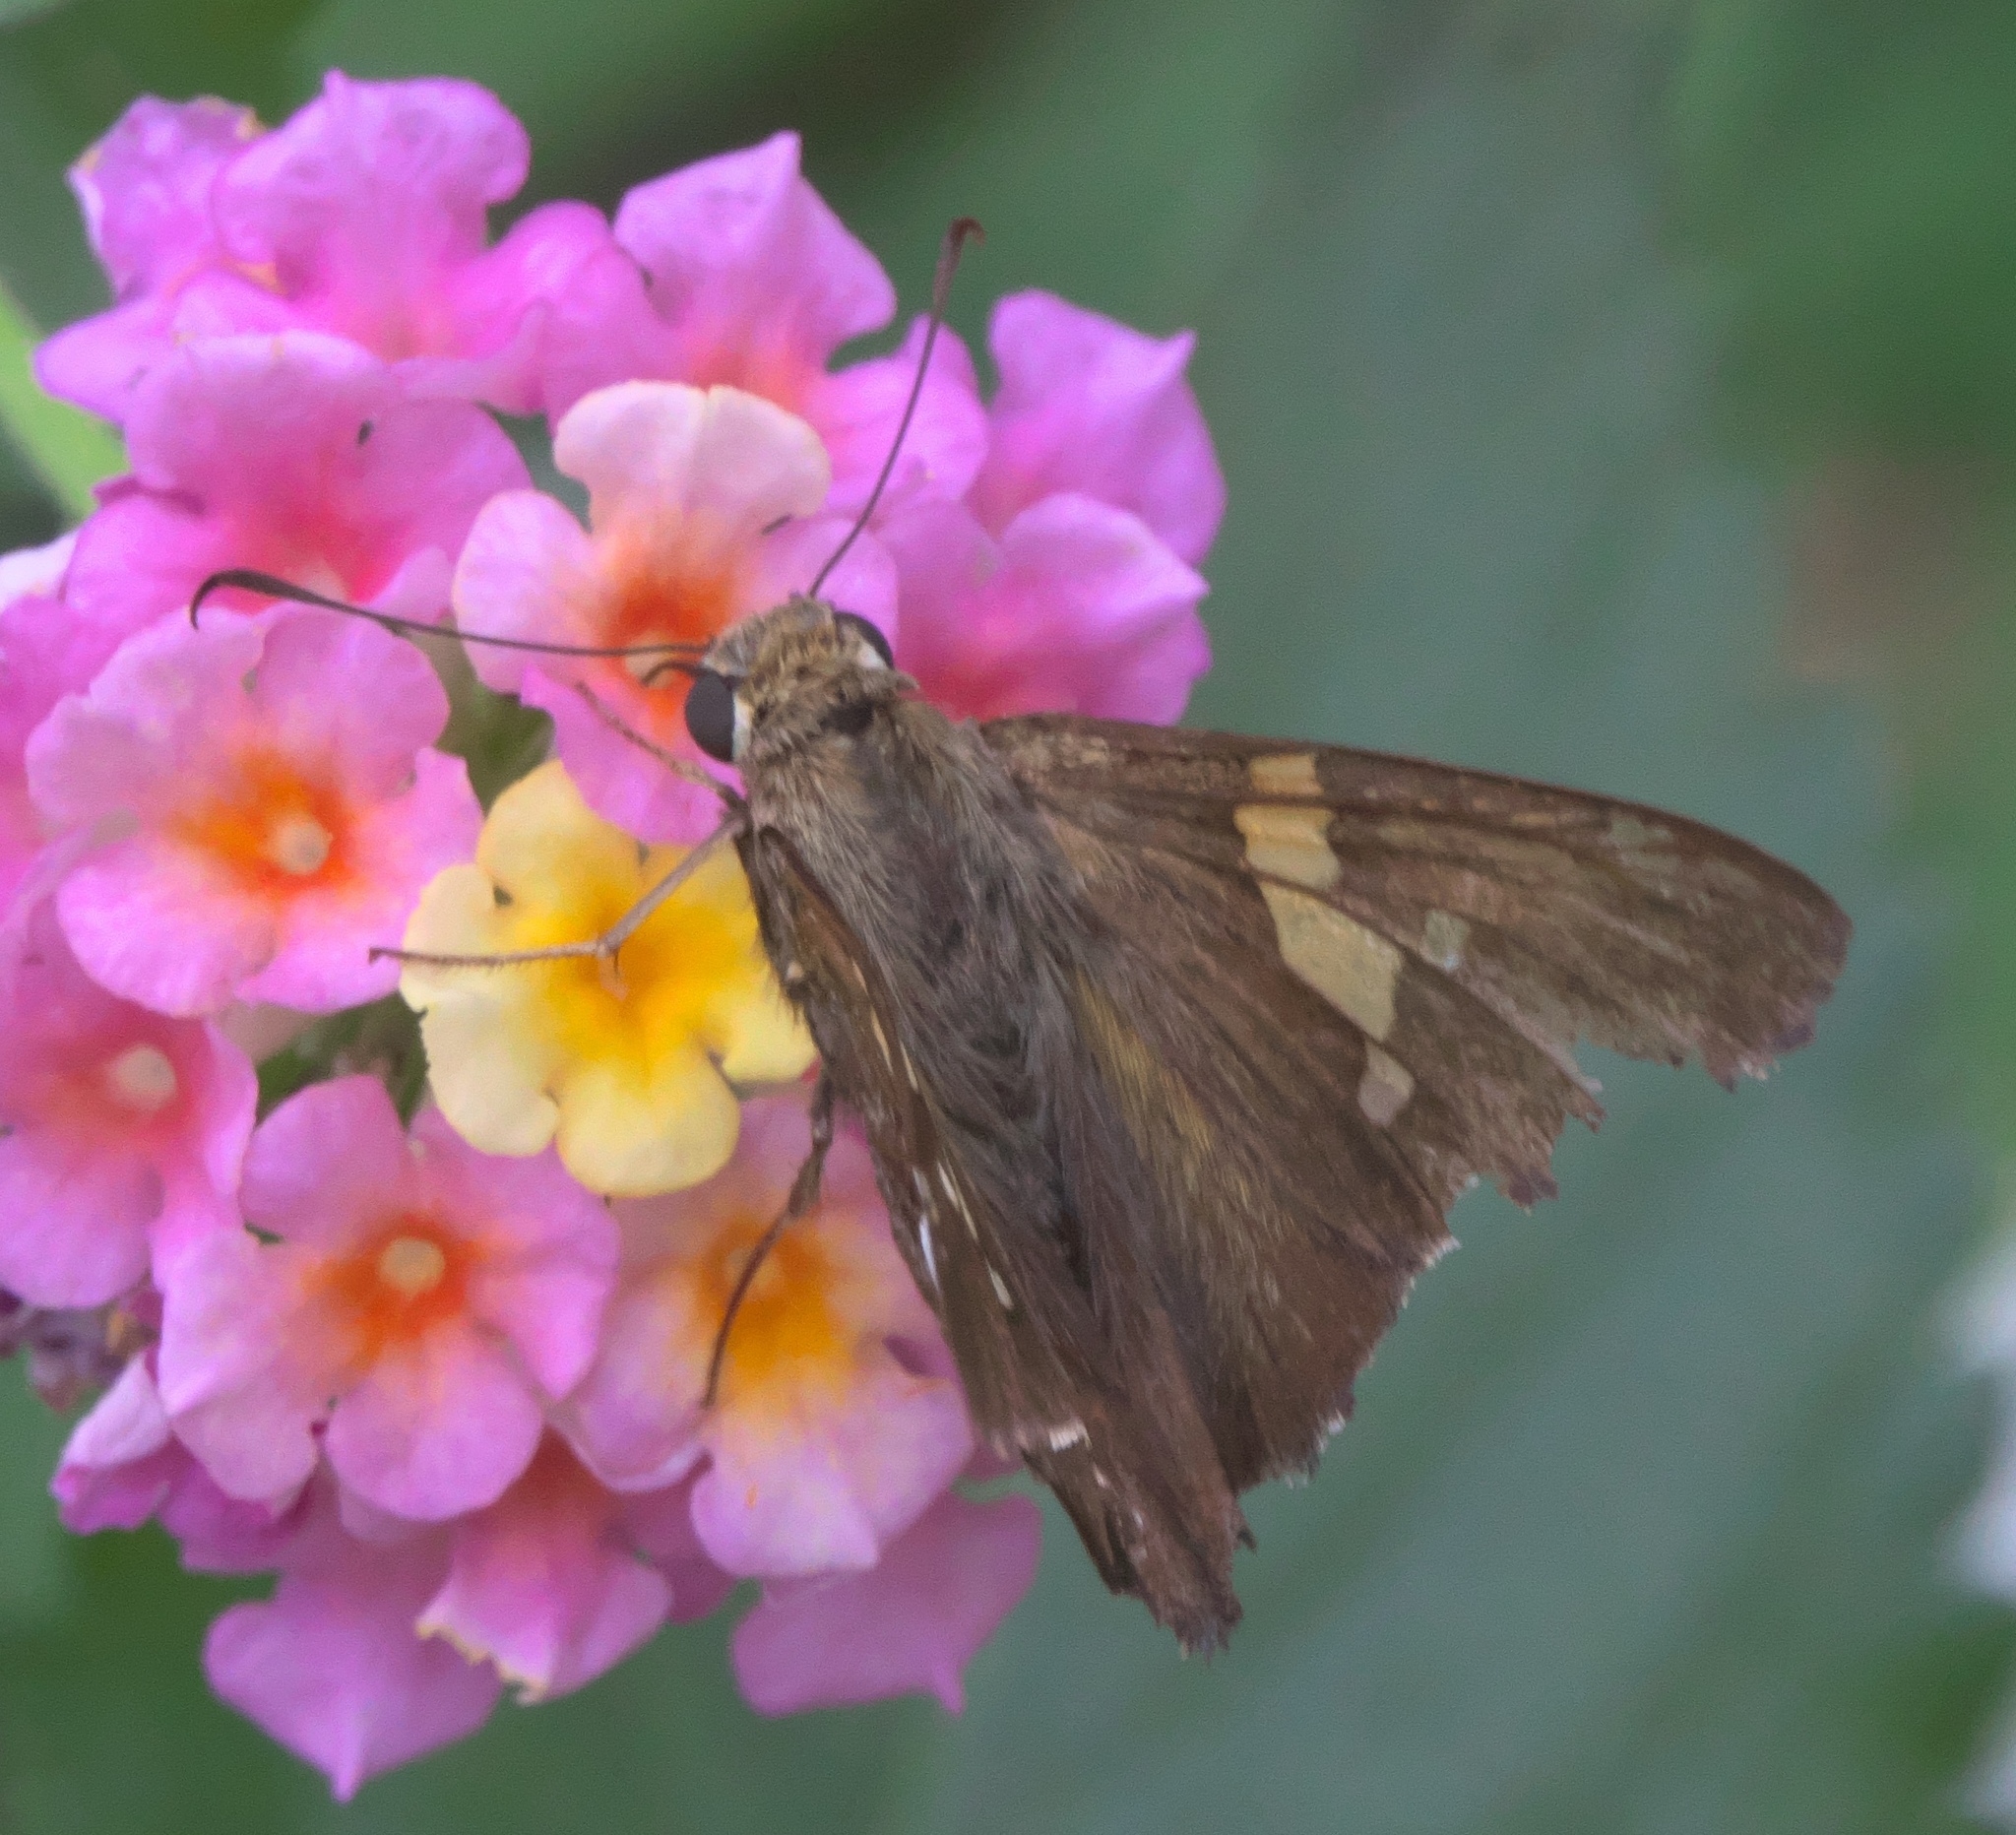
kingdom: Animalia
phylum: Arthropoda
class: Insecta
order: Lepidoptera
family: Hesperiidae
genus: Epargyreus
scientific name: Epargyreus clarus
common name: Silver-spotted skipper
